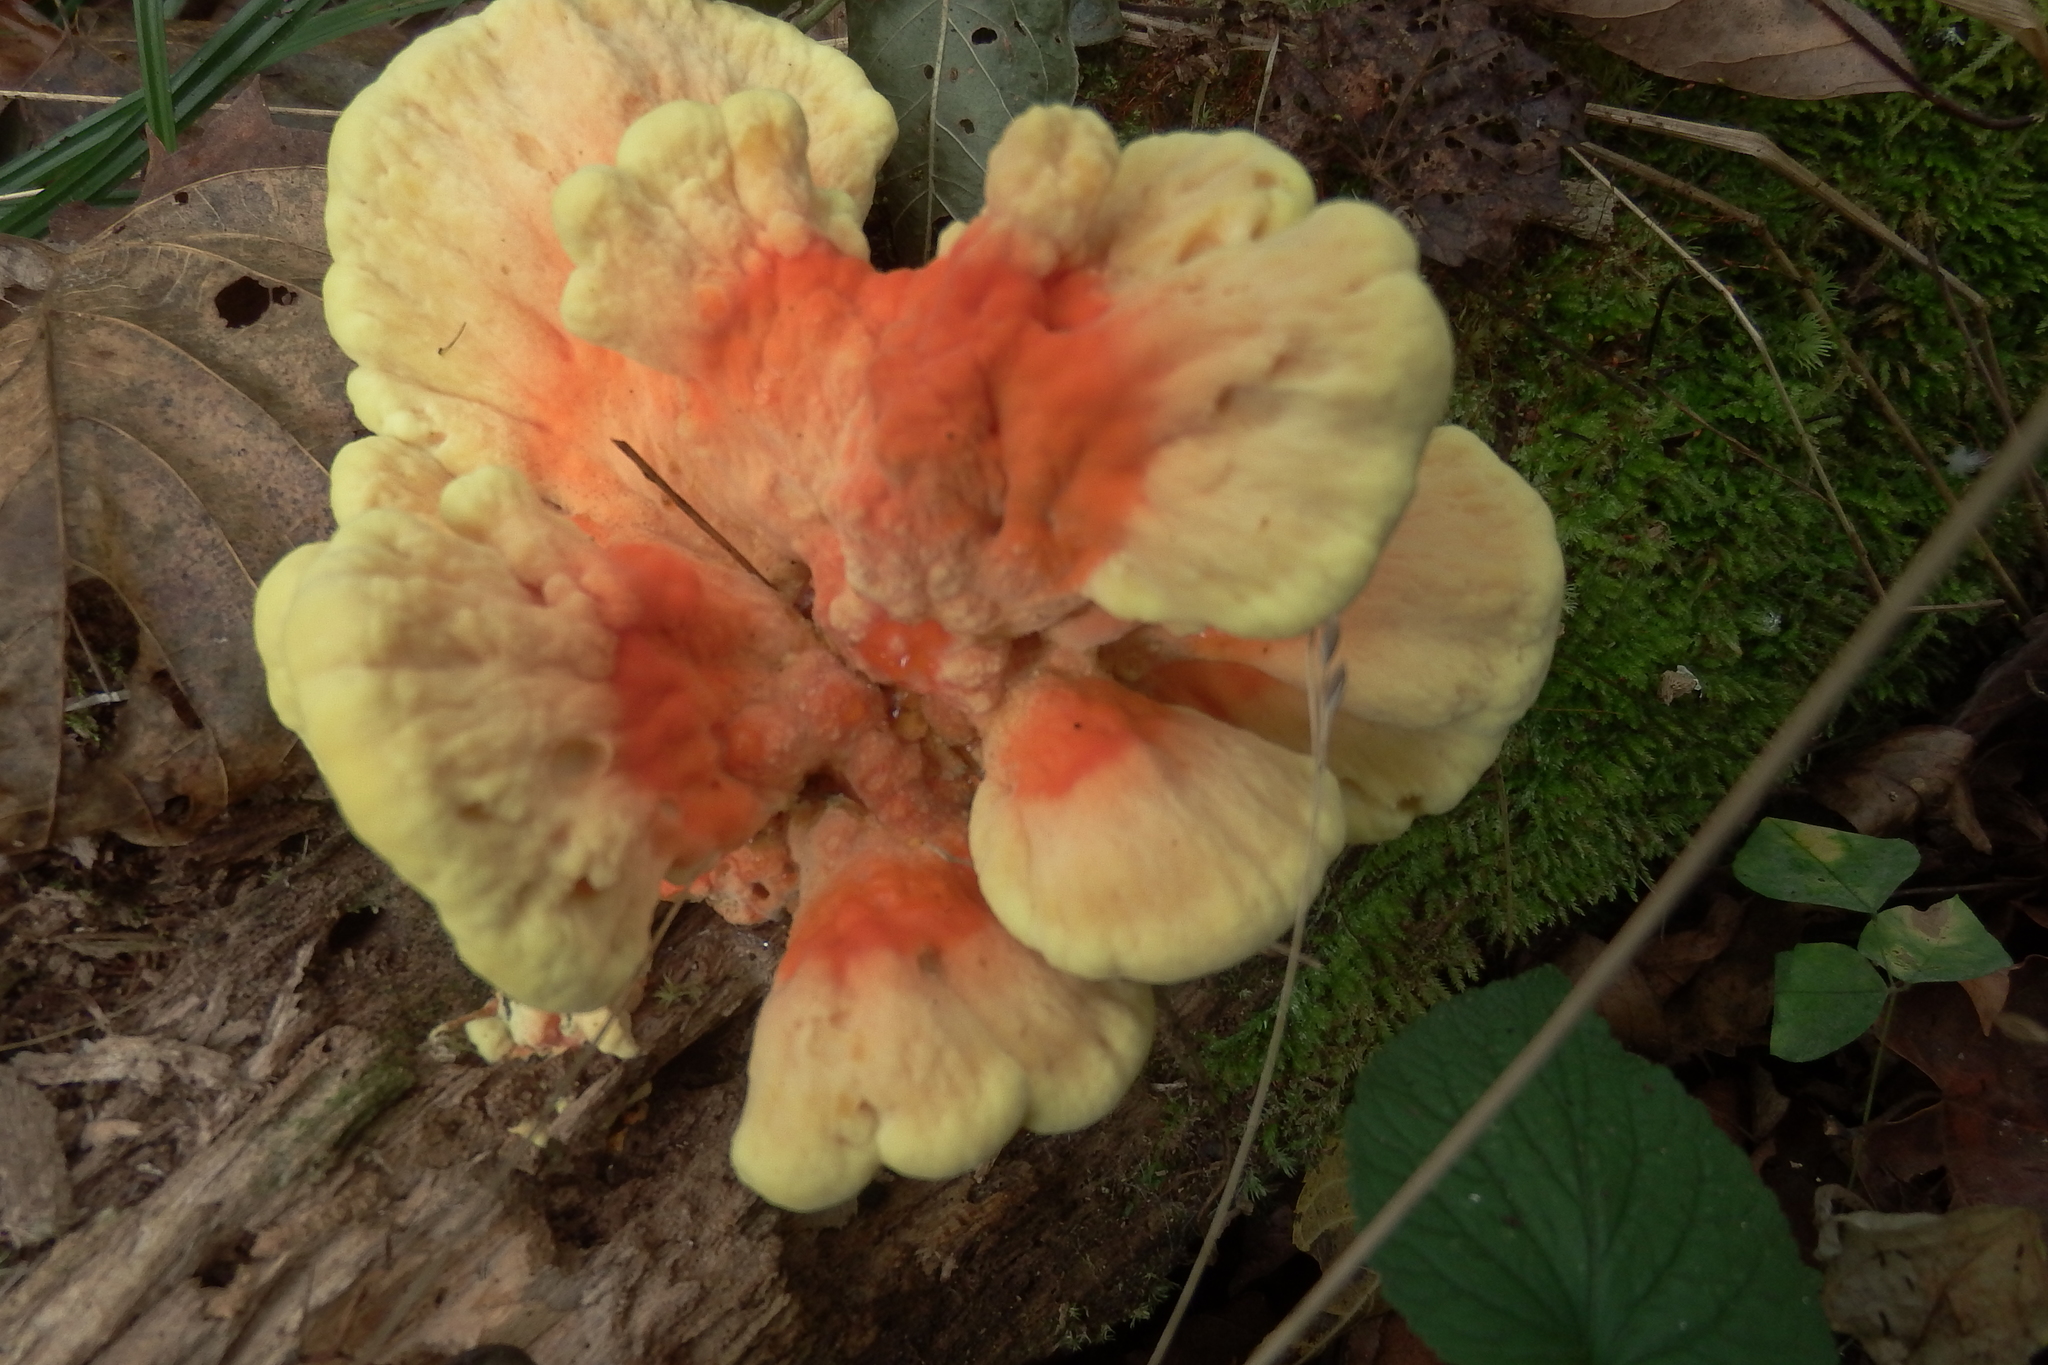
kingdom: Fungi
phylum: Basidiomycota
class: Agaricomycetes
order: Polyporales
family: Laetiporaceae
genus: Laetiporus
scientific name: Laetiporus sulphureus
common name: Chicken of the woods
